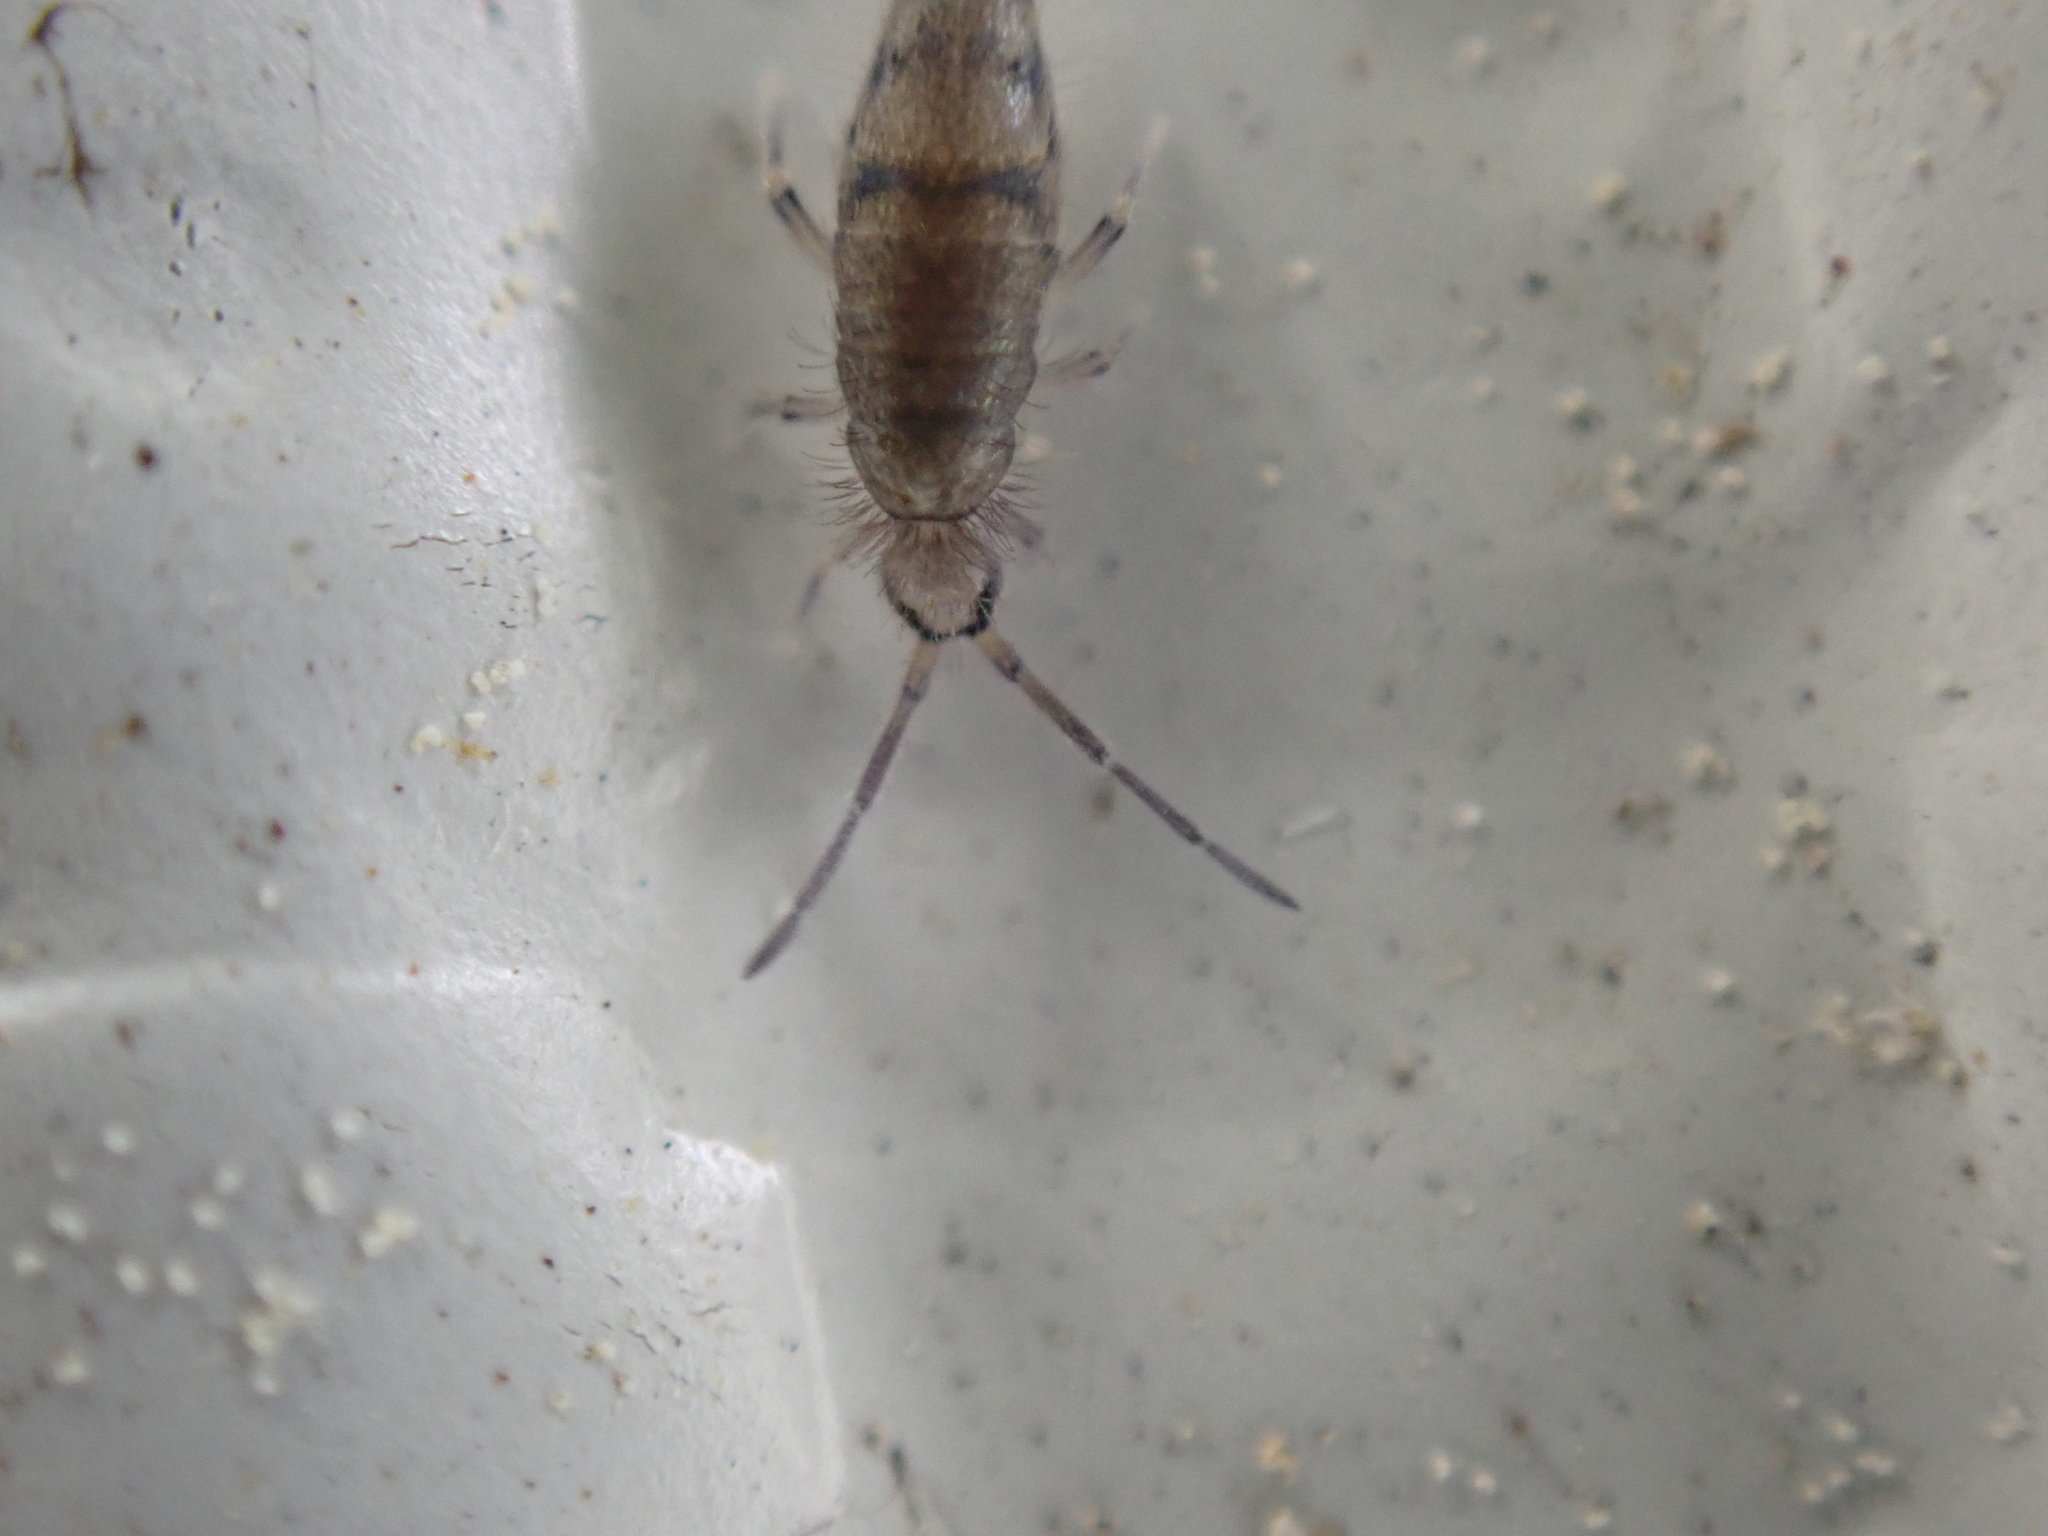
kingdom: Animalia
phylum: Arthropoda
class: Collembola
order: Entomobryomorpha
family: Entomobryidae
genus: Willowsia
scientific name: Willowsia nigromaculata
